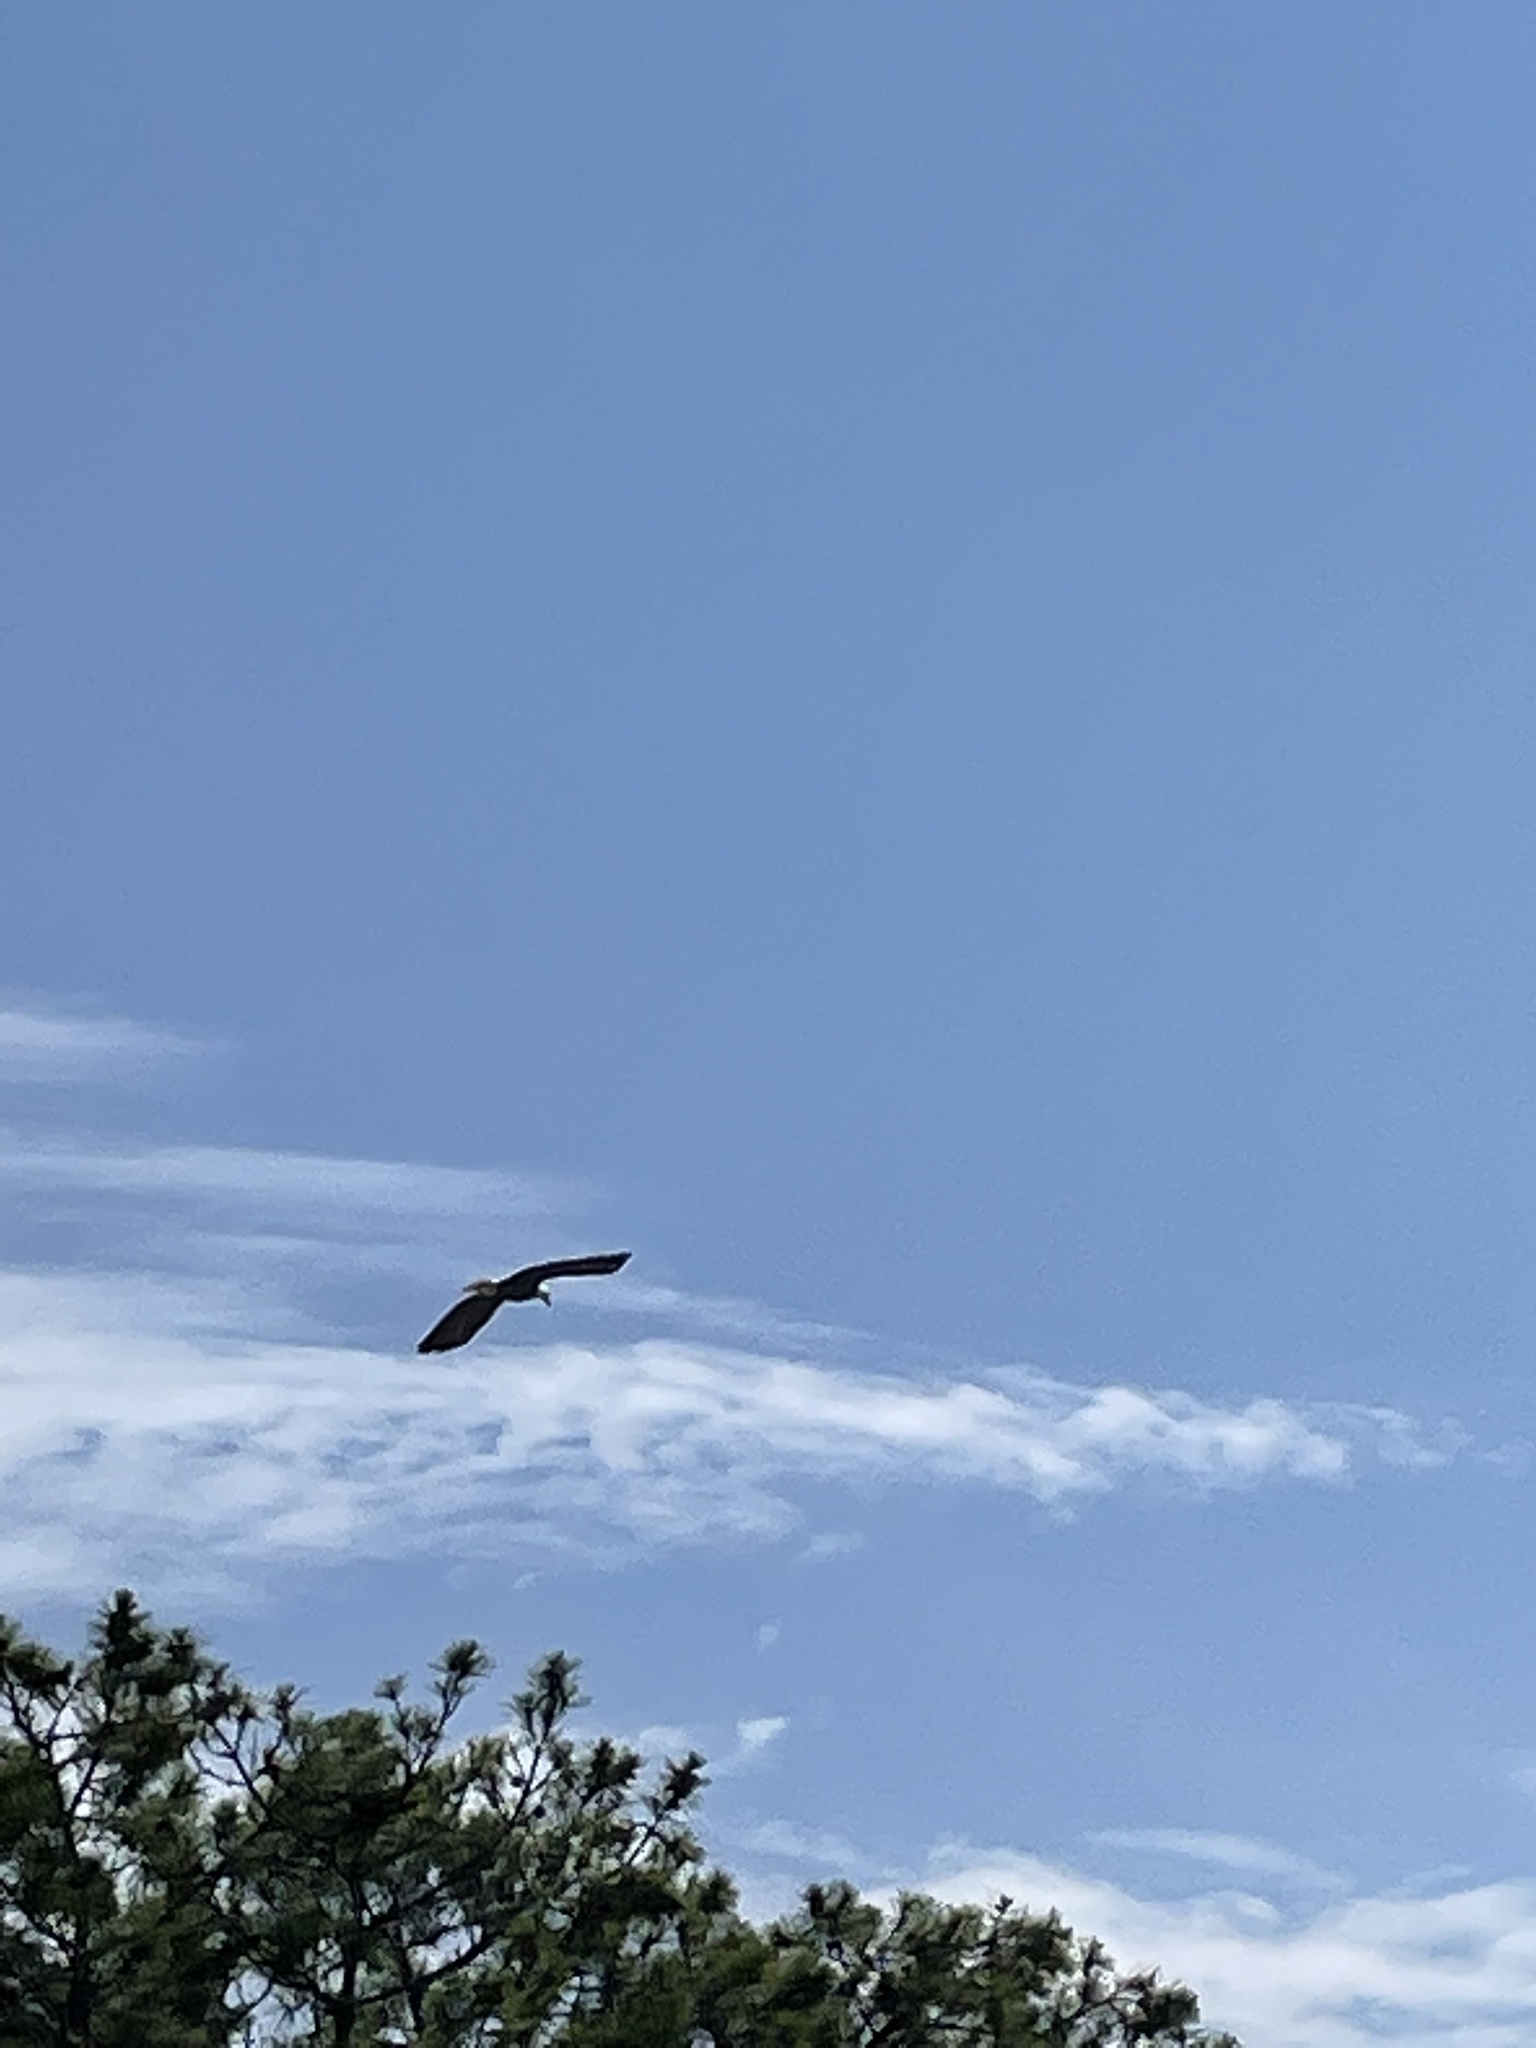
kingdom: Animalia
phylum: Chordata
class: Aves
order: Accipitriformes
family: Accipitridae
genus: Haliaeetus
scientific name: Haliaeetus leucocephalus
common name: Bald eagle
